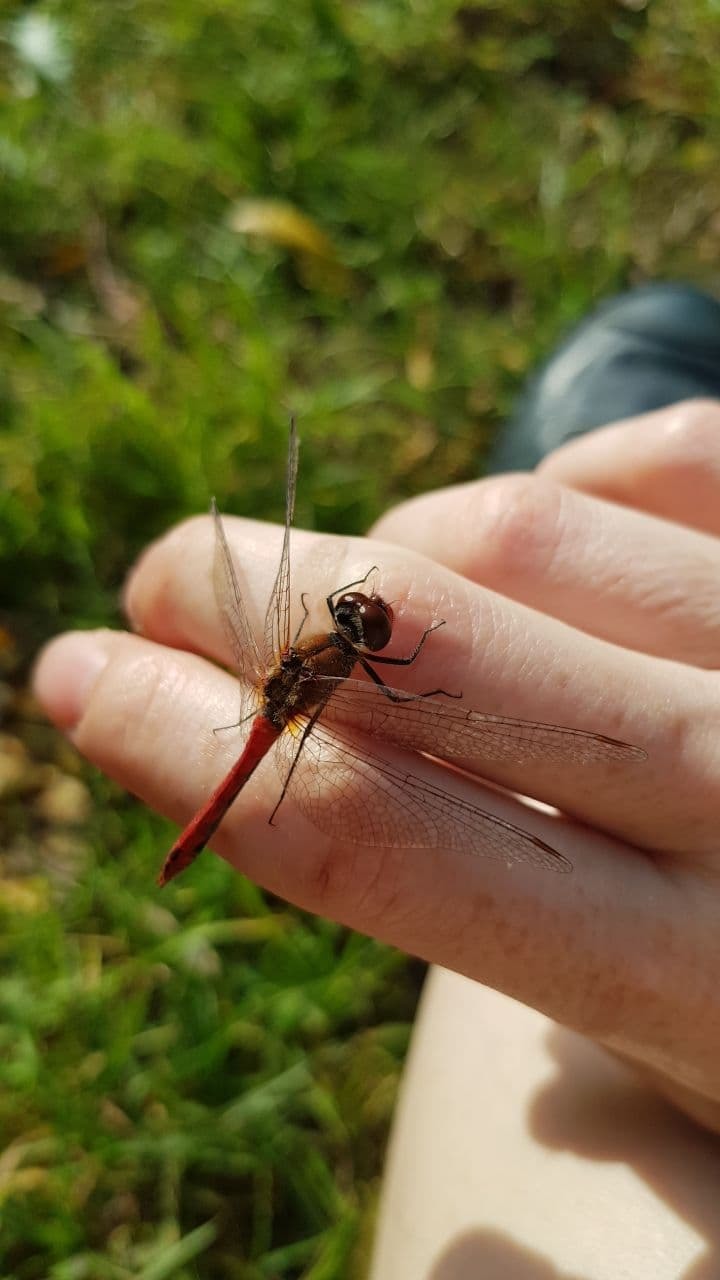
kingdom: Animalia
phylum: Arthropoda
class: Insecta
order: Odonata
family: Libellulidae
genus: Sympetrum
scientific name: Sympetrum sanguineum
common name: Ruddy darter
